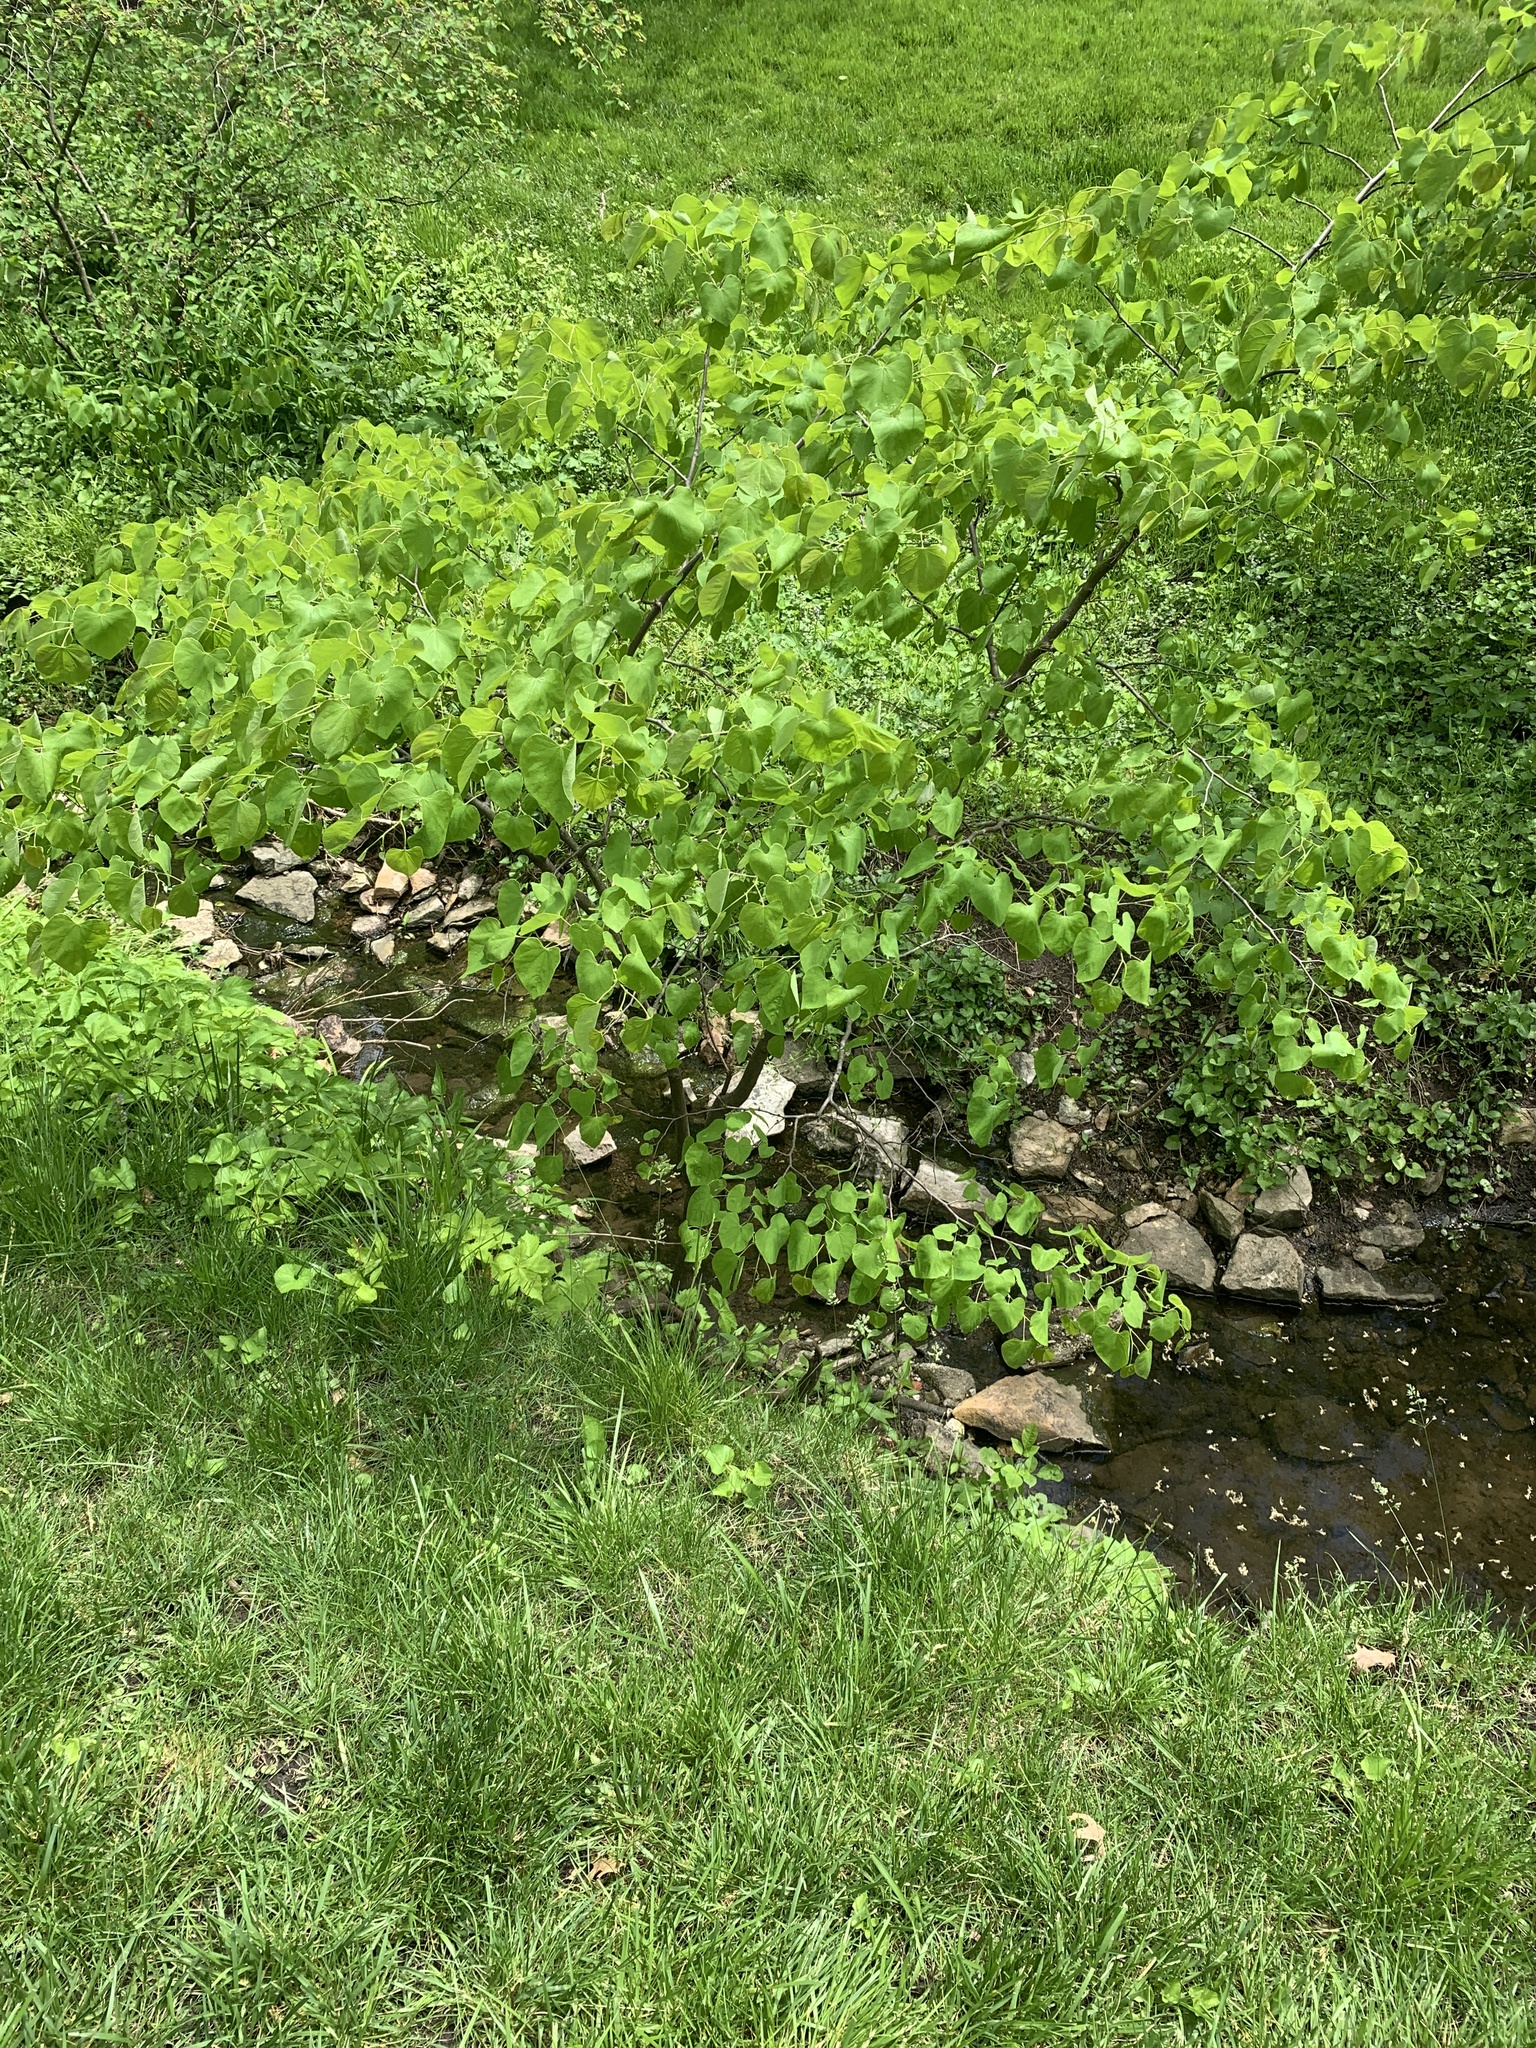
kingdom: Plantae
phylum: Tracheophyta
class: Magnoliopsida
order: Fabales
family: Fabaceae
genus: Cercis
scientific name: Cercis canadensis
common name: Eastern redbud
